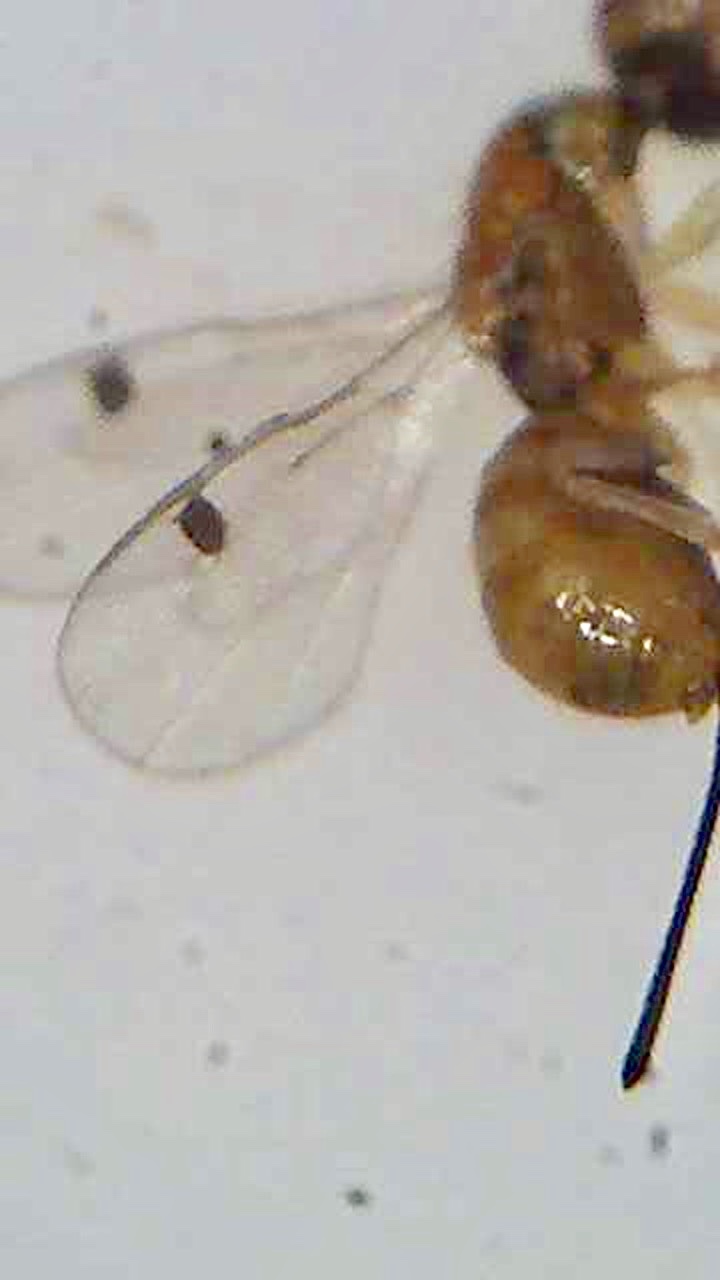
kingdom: Animalia
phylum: Arthropoda
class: Insecta
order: Hymenoptera
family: Torymidae
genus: Megastigmus
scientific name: Megastigmus
